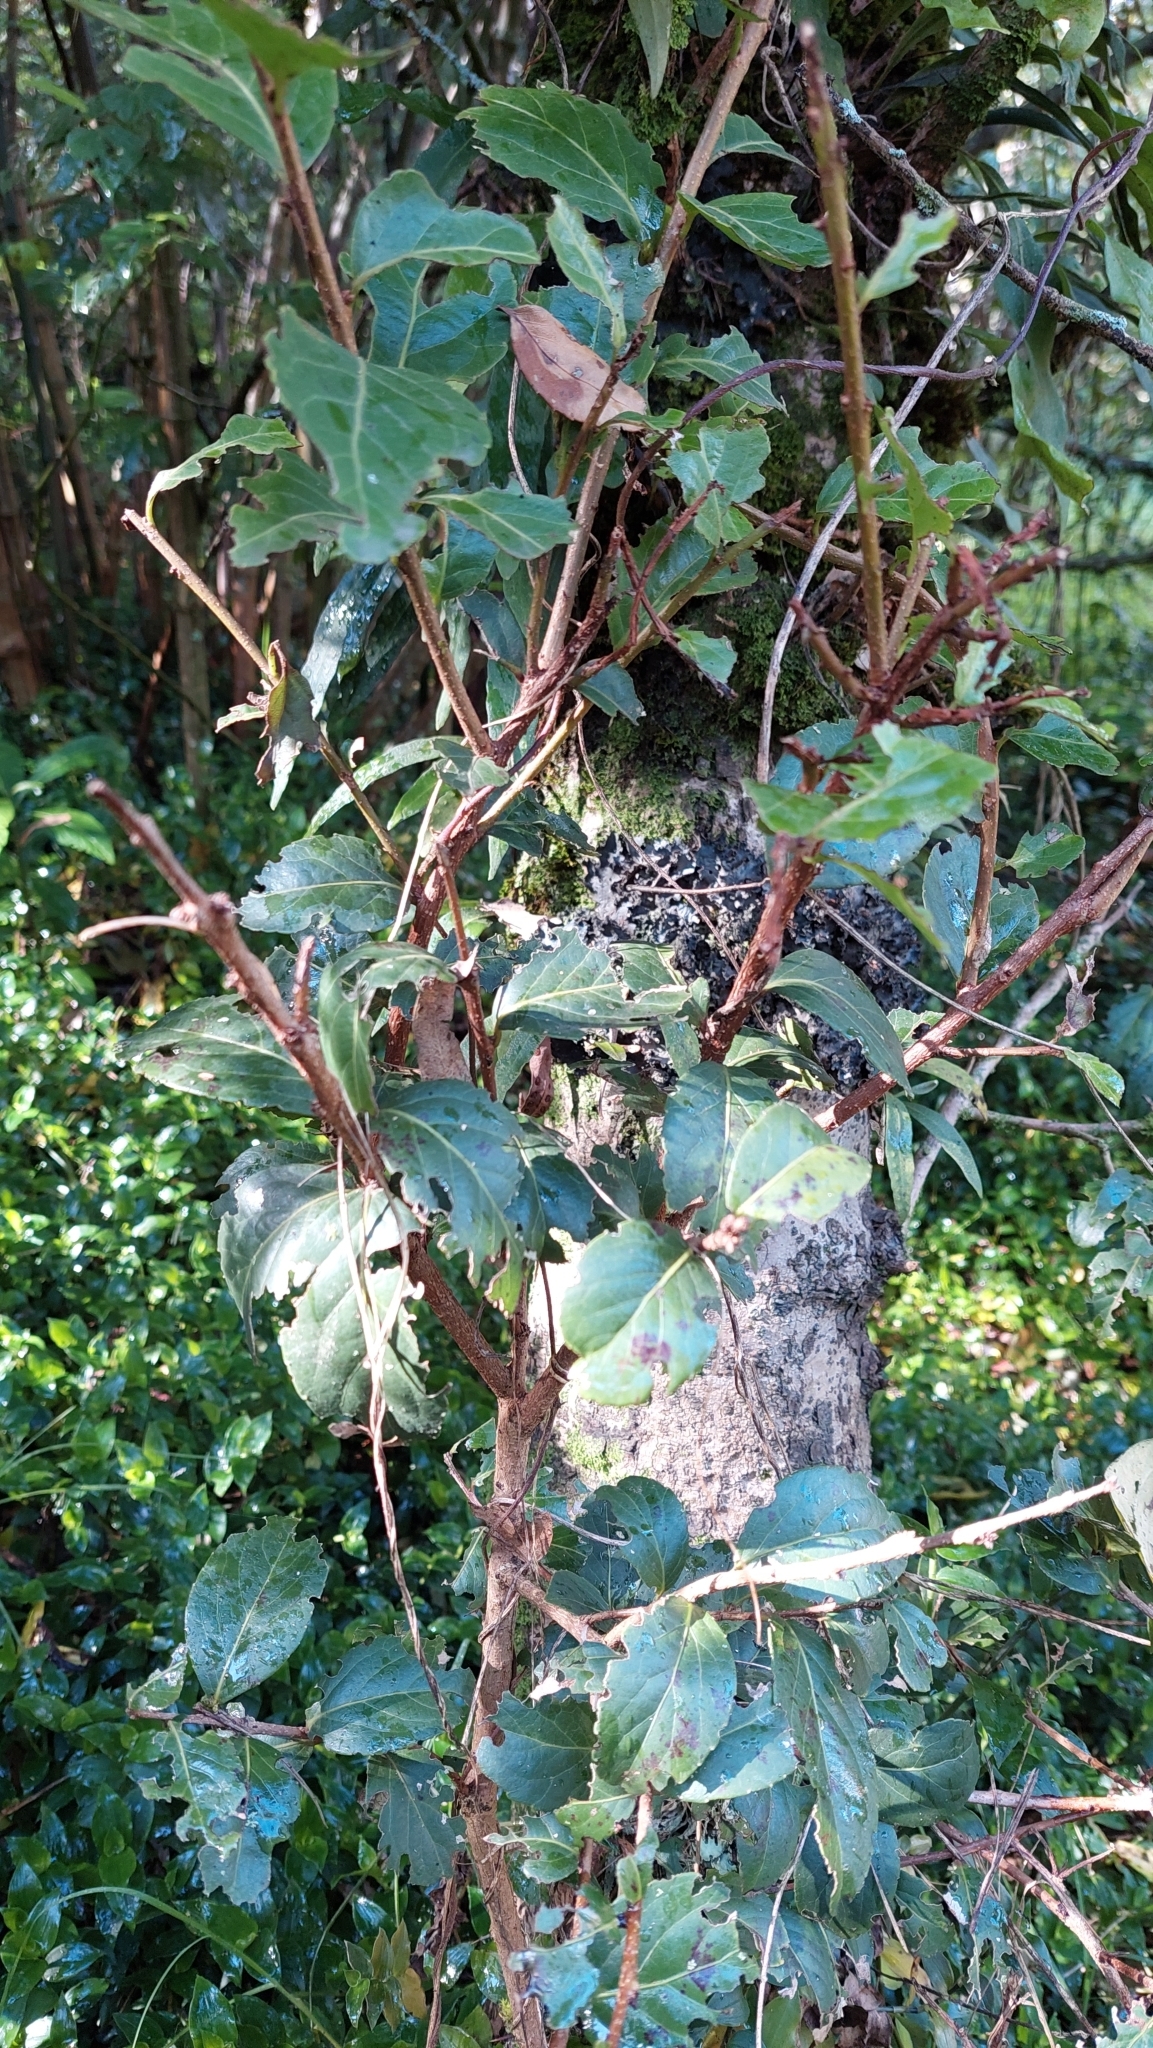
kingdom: Plantae
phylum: Tracheophyta
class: Magnoliopsida
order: Malpighiales
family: Salicaceae
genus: Xylosma
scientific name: Xylosma spiculifera
